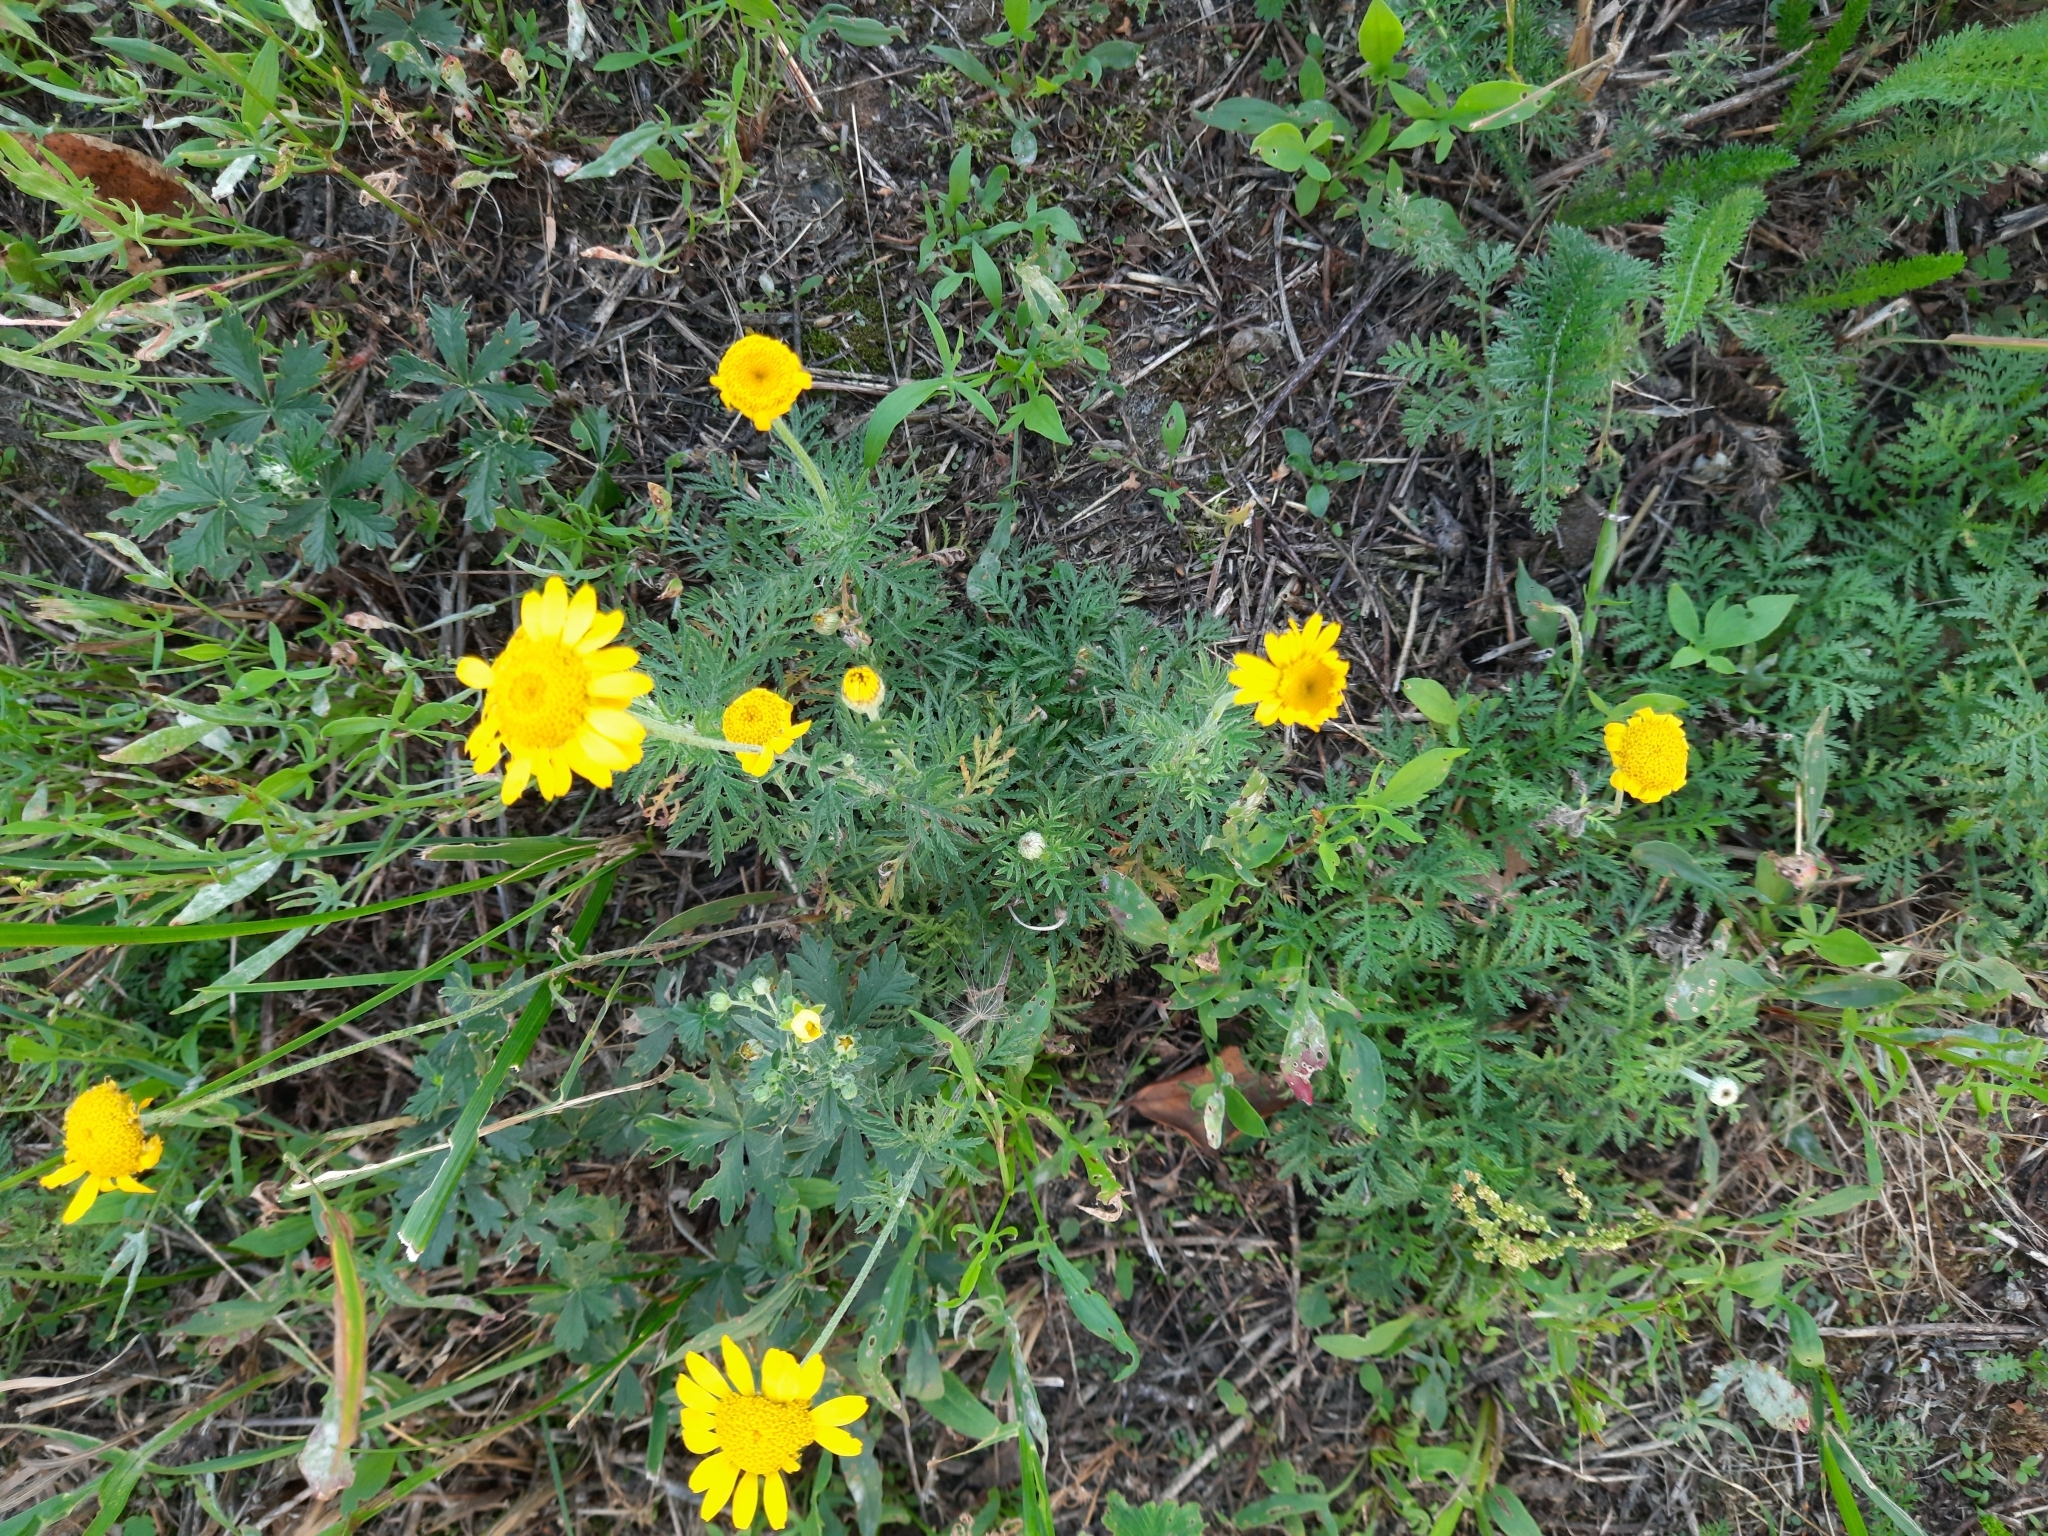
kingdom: Plantae
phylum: Tracheophyta
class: Magnoliopsida
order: Asterales
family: Asteraceae
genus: Cota
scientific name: Cota tinctoria
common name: Golden chamomile
